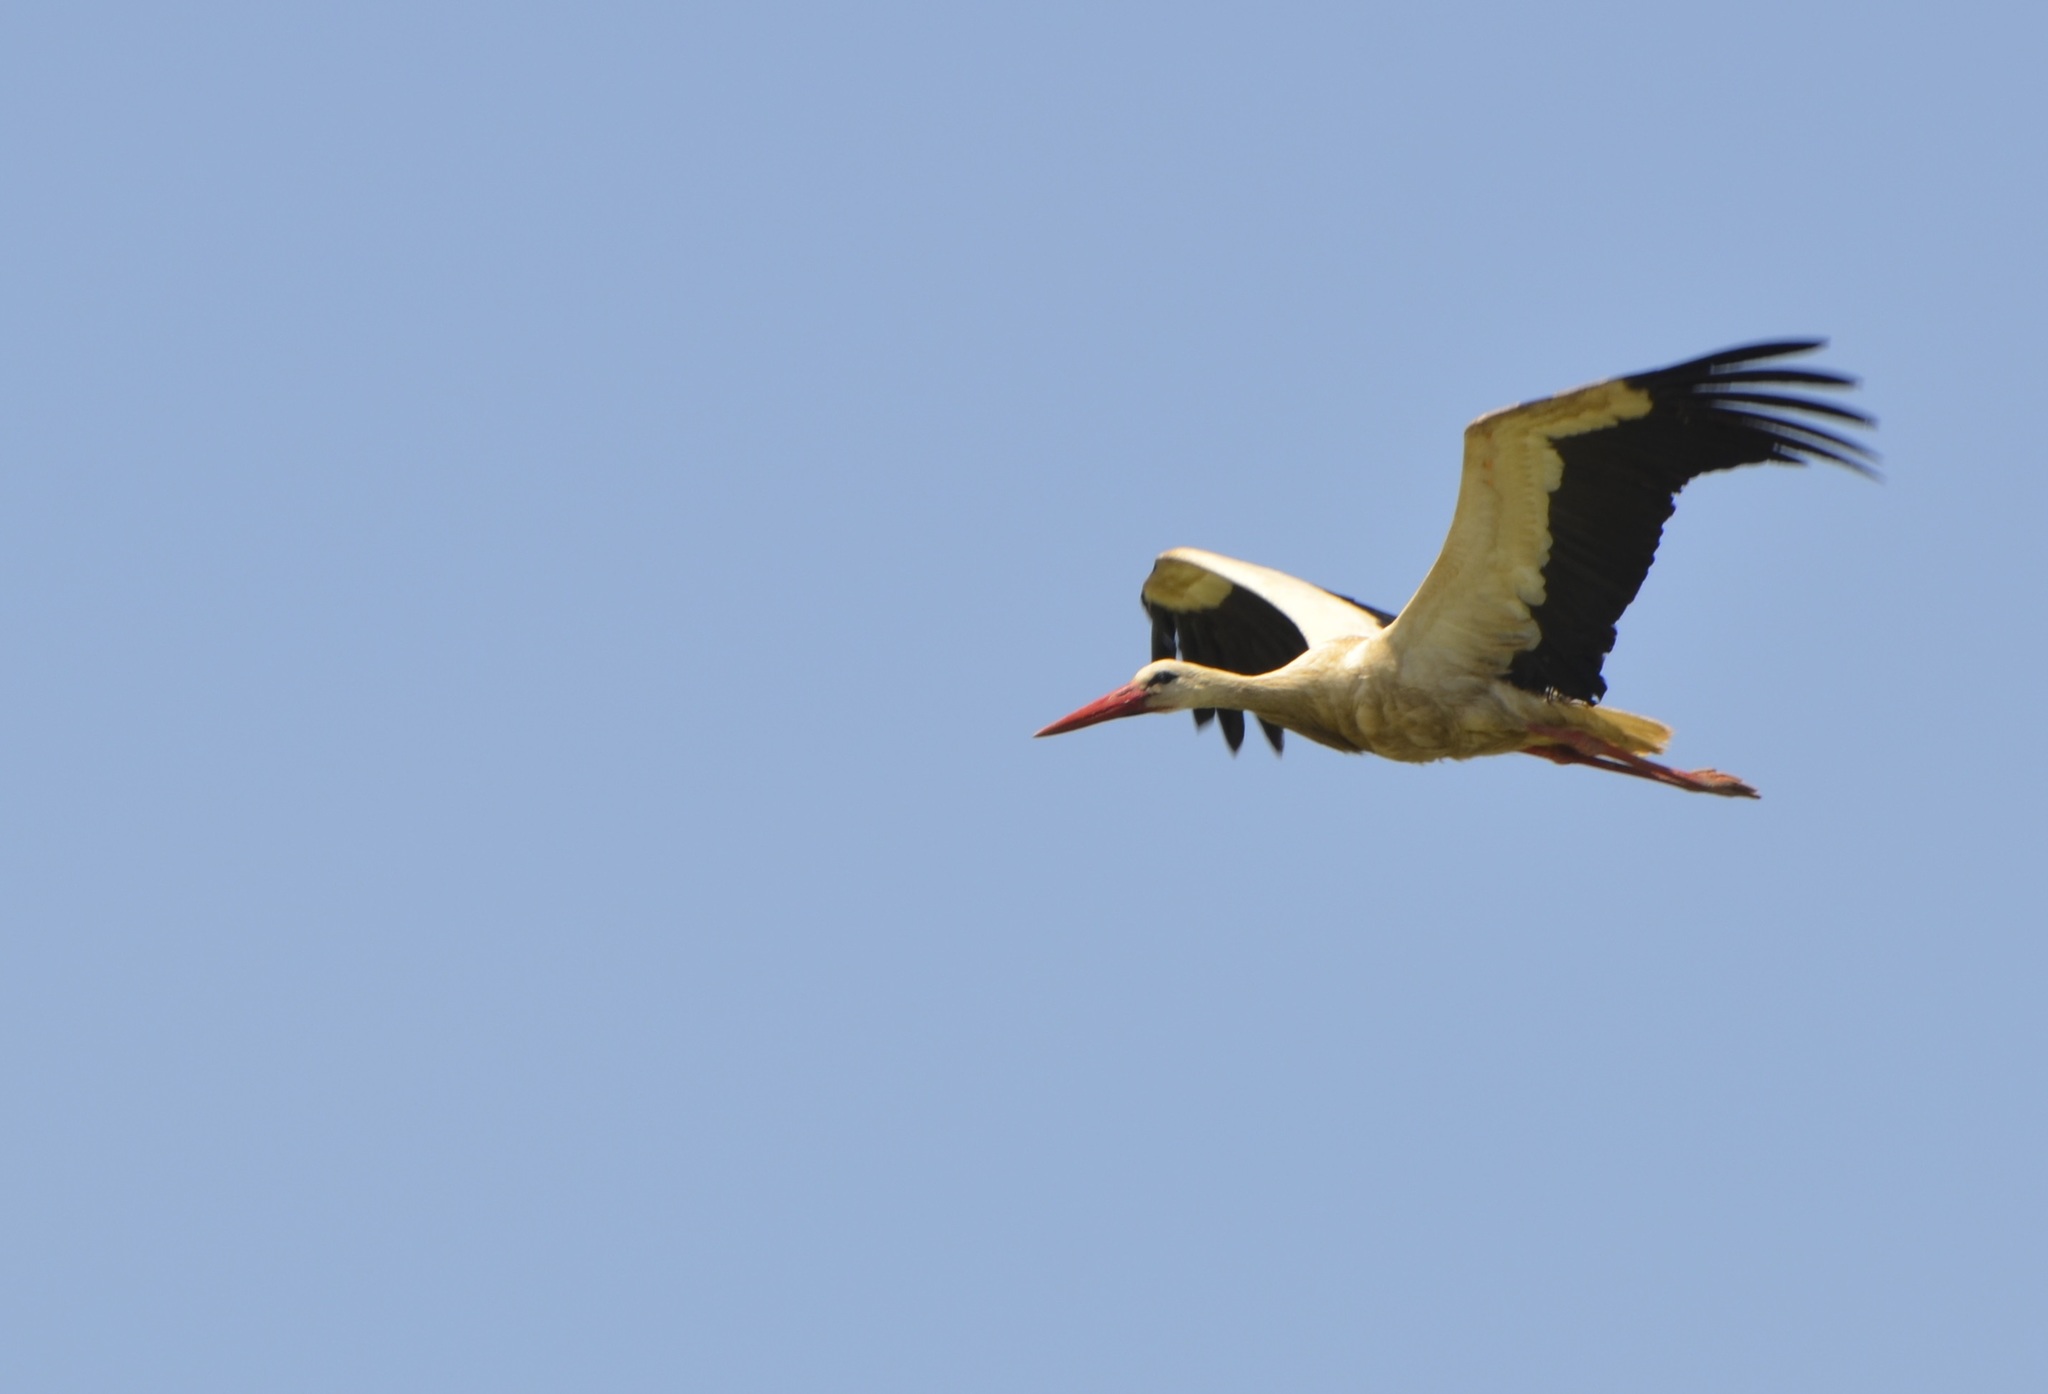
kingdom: Animalia
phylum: Chordata
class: Aves
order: Ciconiiformes
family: Ciconiidae
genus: Ciconia
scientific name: Ciconia ciconia
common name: White stork
